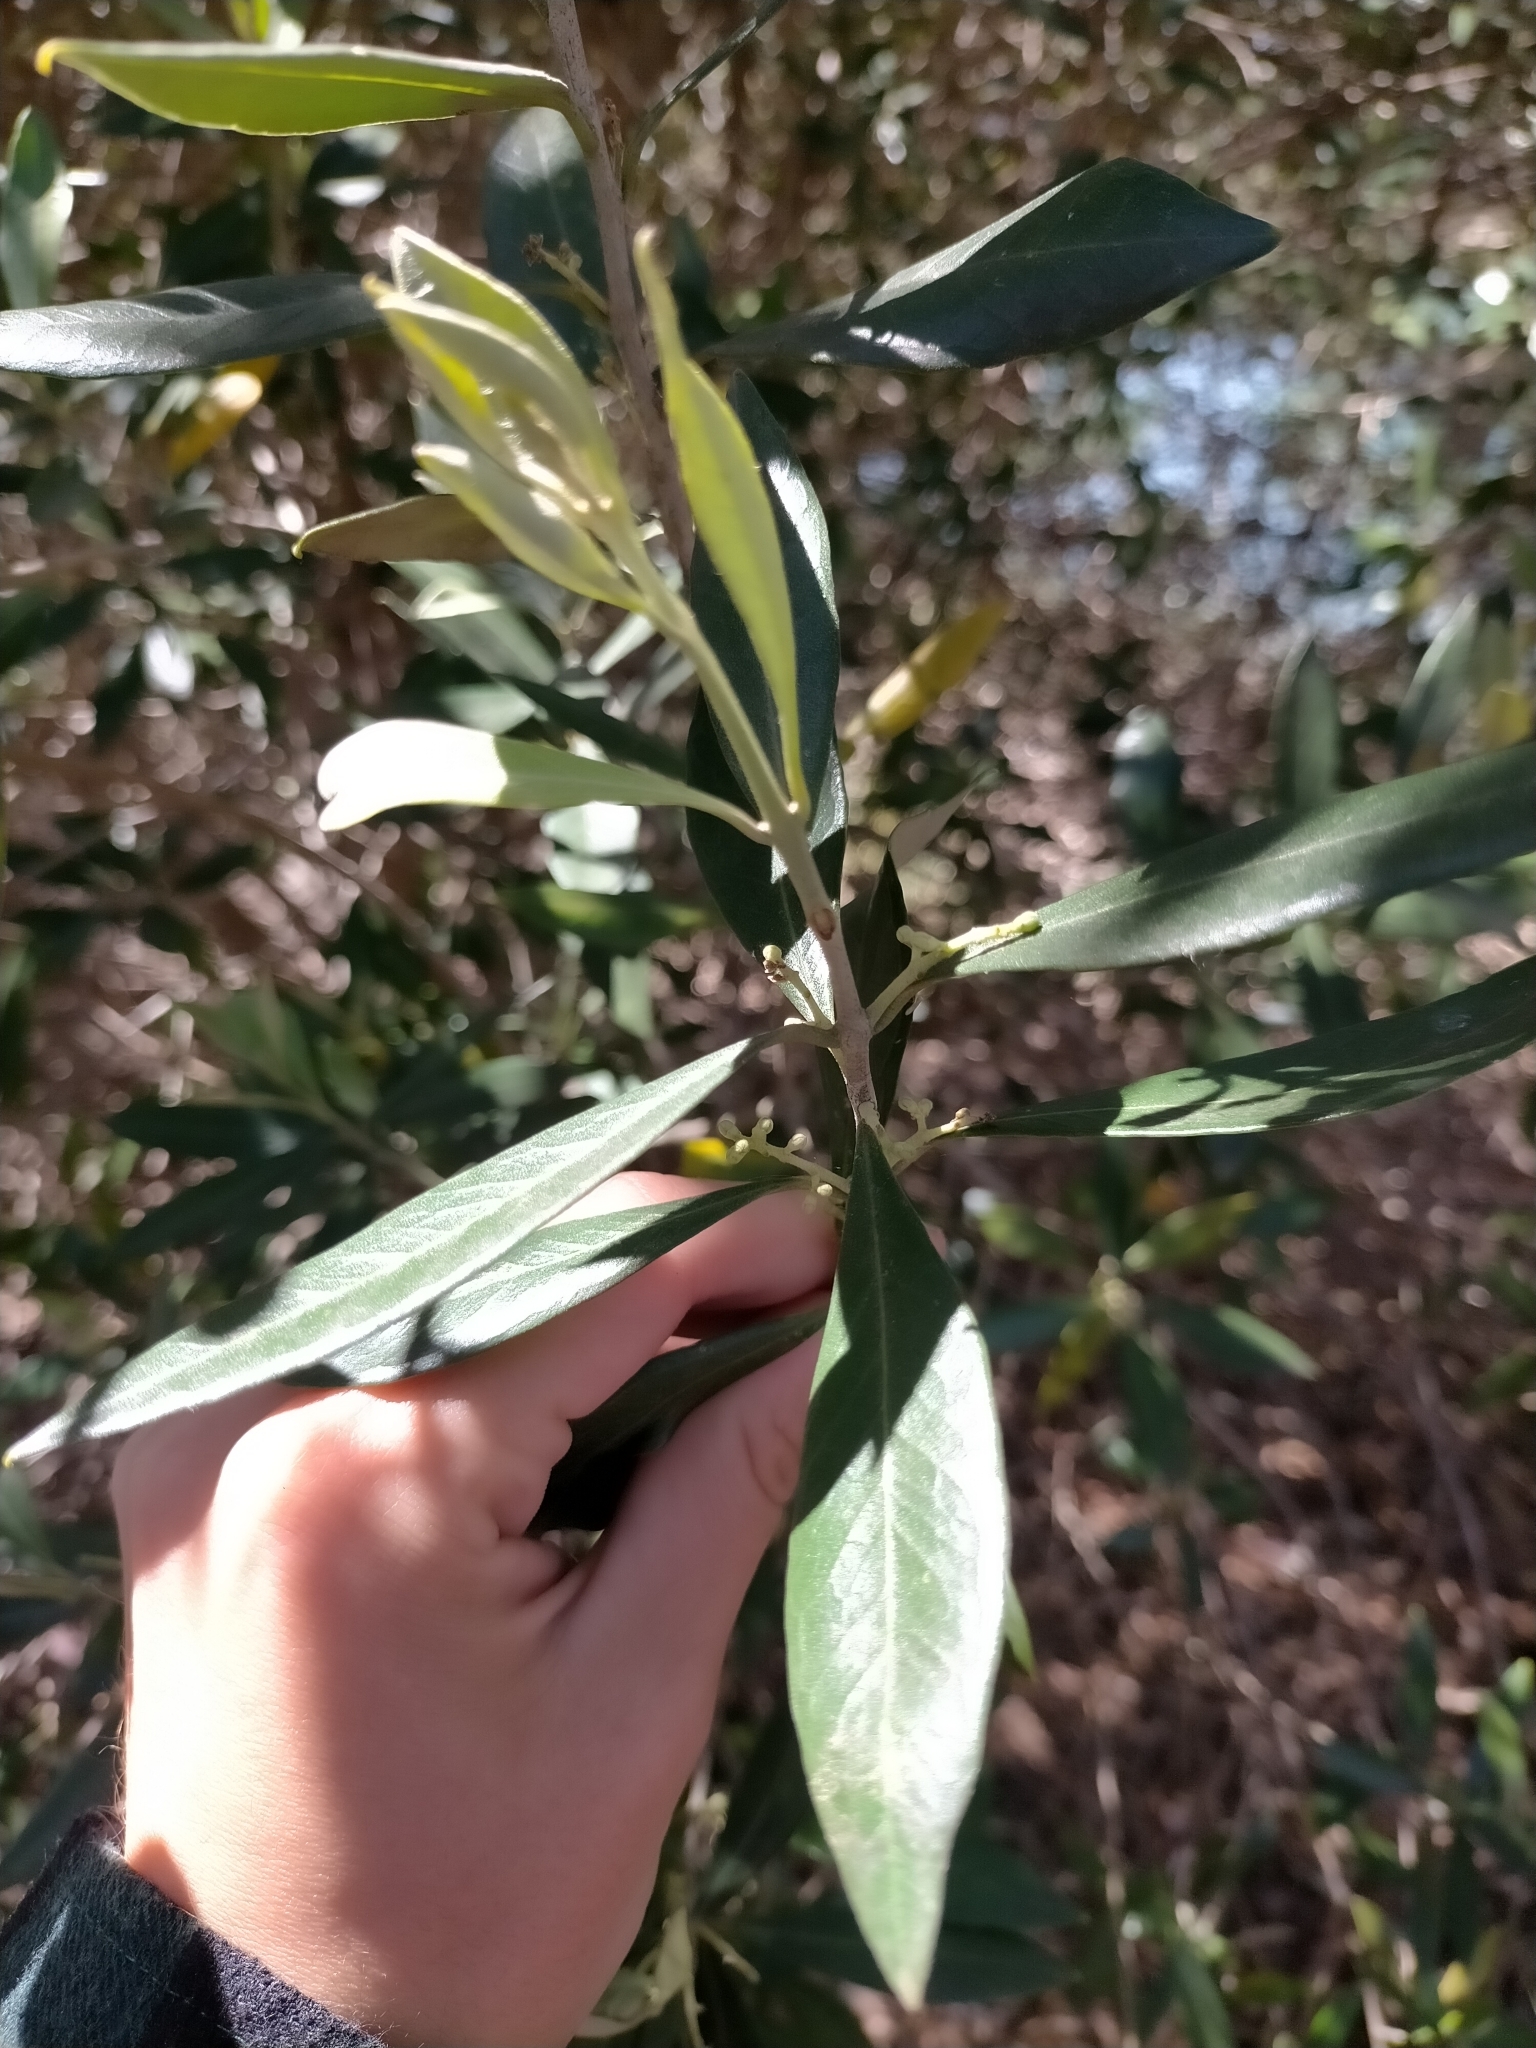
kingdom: Plantae
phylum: Tracheophyta
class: Magnoliopsida
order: Lamiales
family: Oleaceae
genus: Olea
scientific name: Olea europaea
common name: Olive
